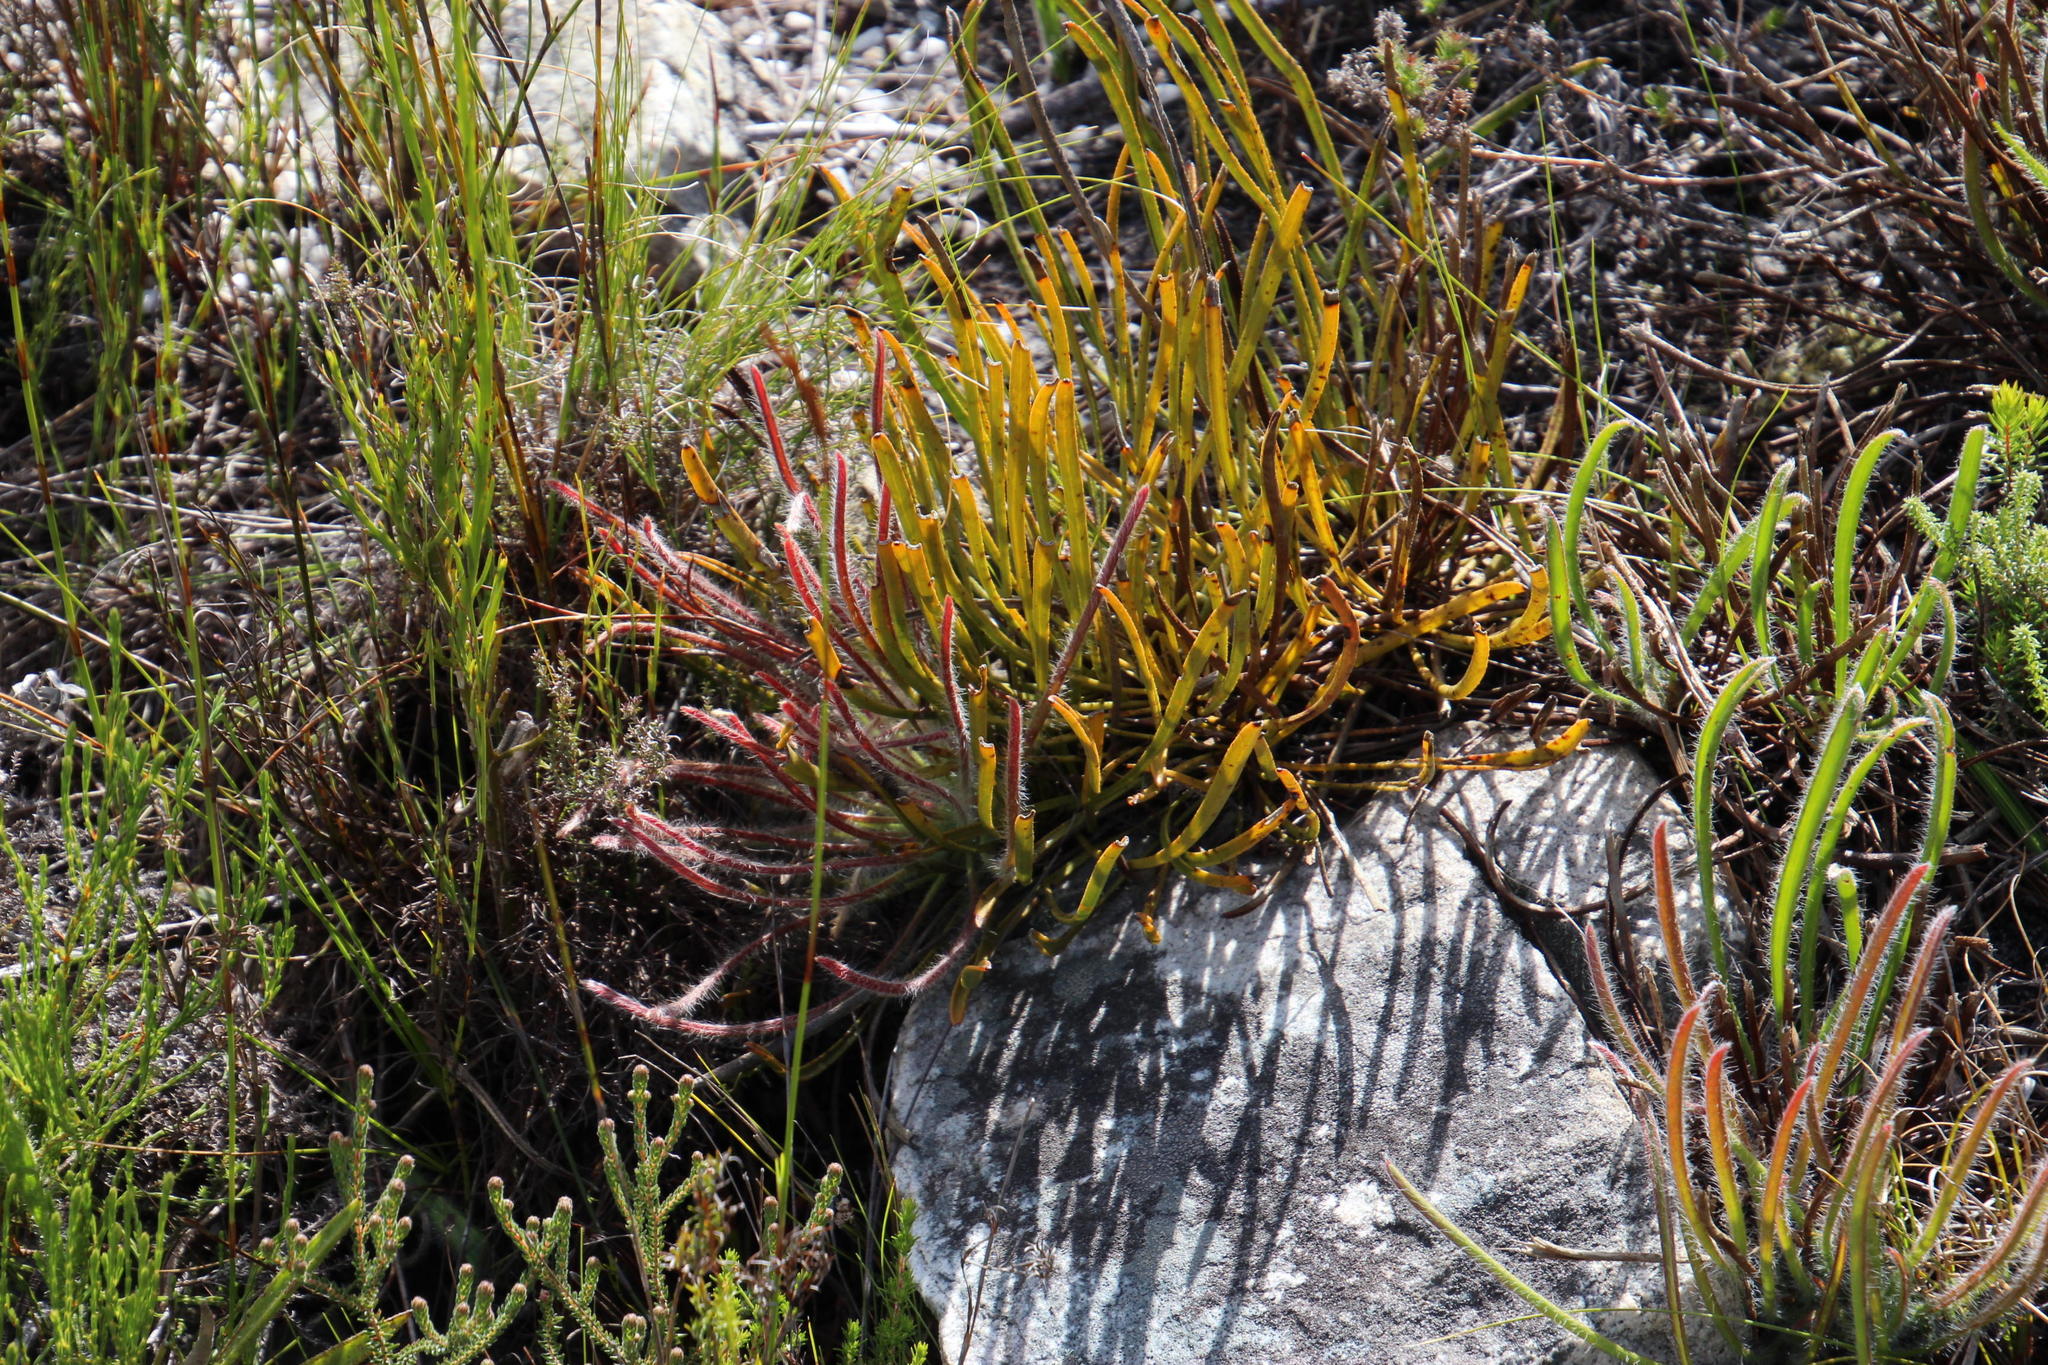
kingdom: Plantae
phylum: Tracheophyta
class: Magnoliopsida
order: Proteales
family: Proteaceae
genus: Protea
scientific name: Protea scabra
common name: Sandpaper-leaf sugarbush
